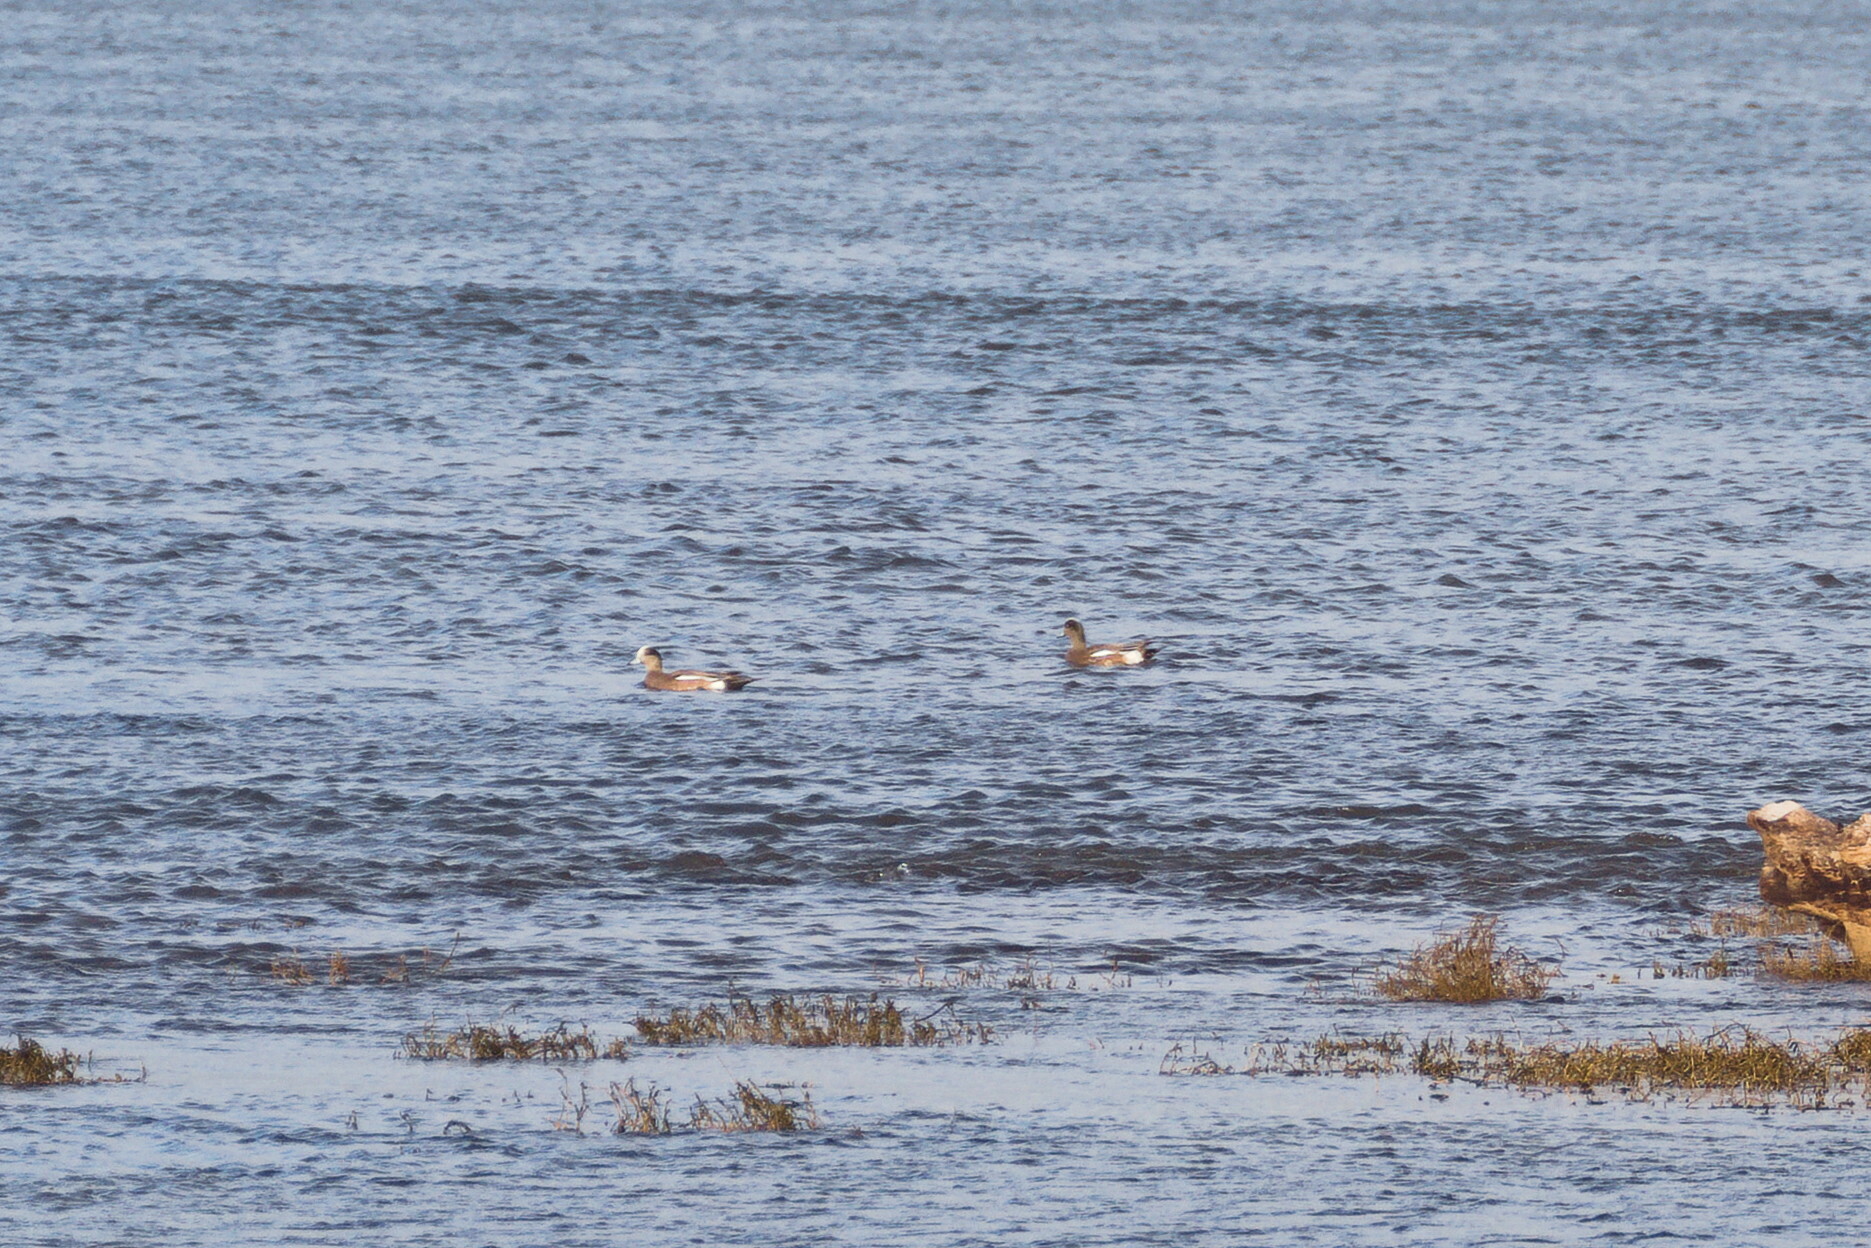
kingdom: Animalia
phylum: Chordata
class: Aves
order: Anseriformes
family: Anatidae
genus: Mareca
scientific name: Mareca americana
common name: American wigeon
